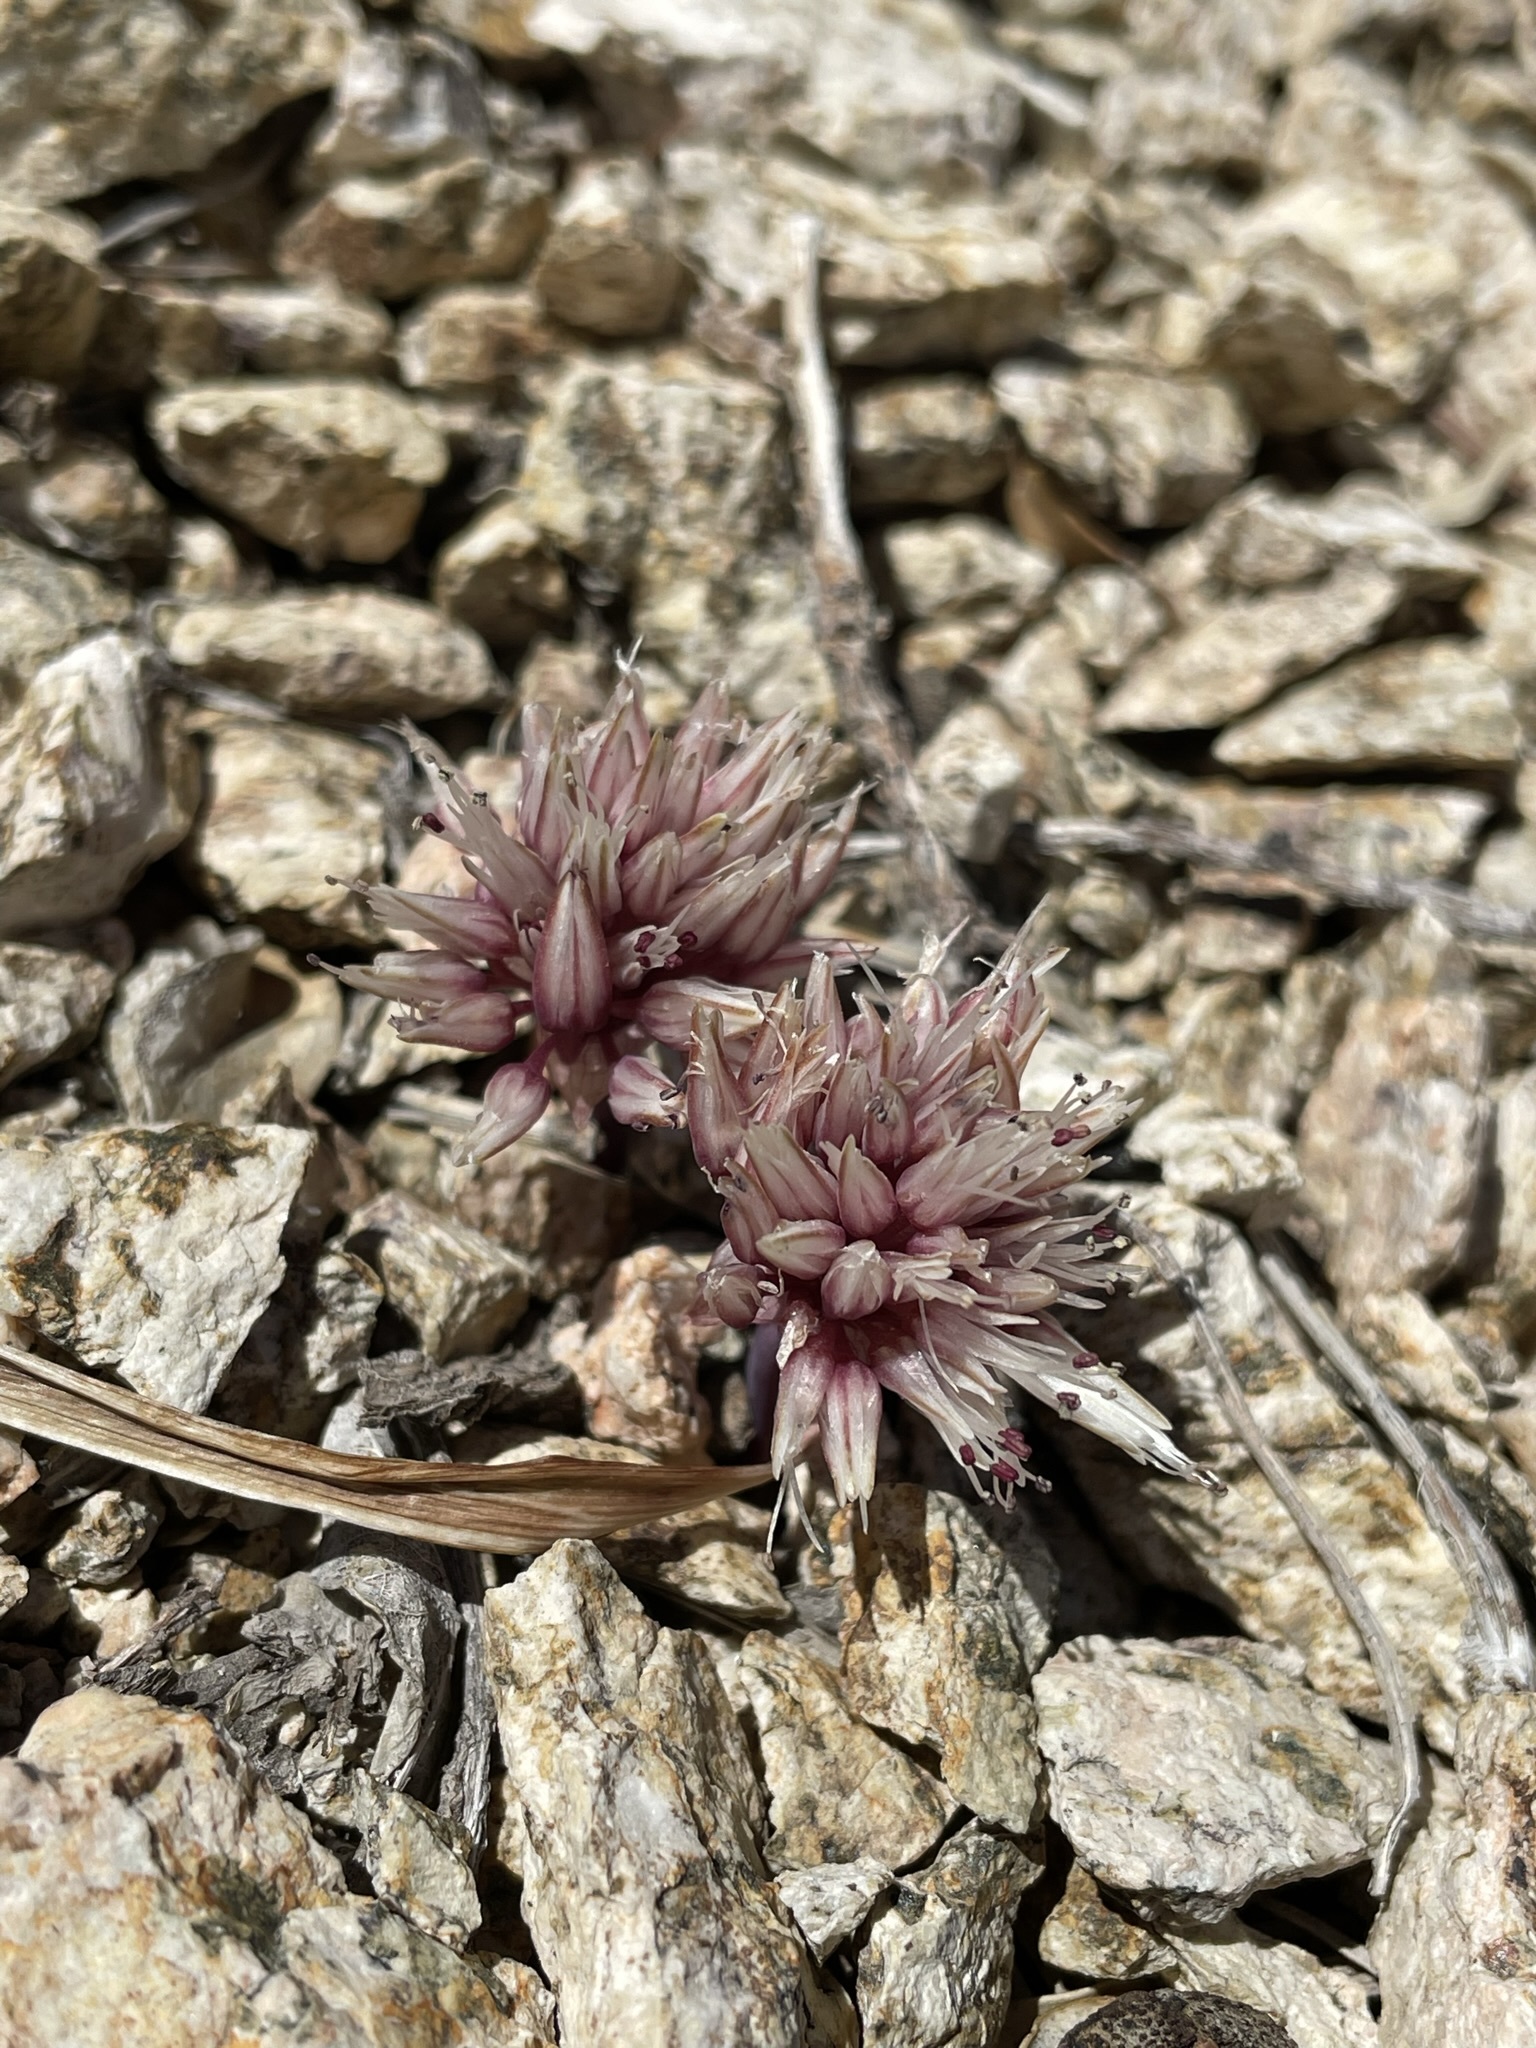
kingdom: Plantae
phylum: Tracheophyta
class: Liliopsida
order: Asparagales
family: Amaryllidaceae
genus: Allium
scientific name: Allium burlewii
